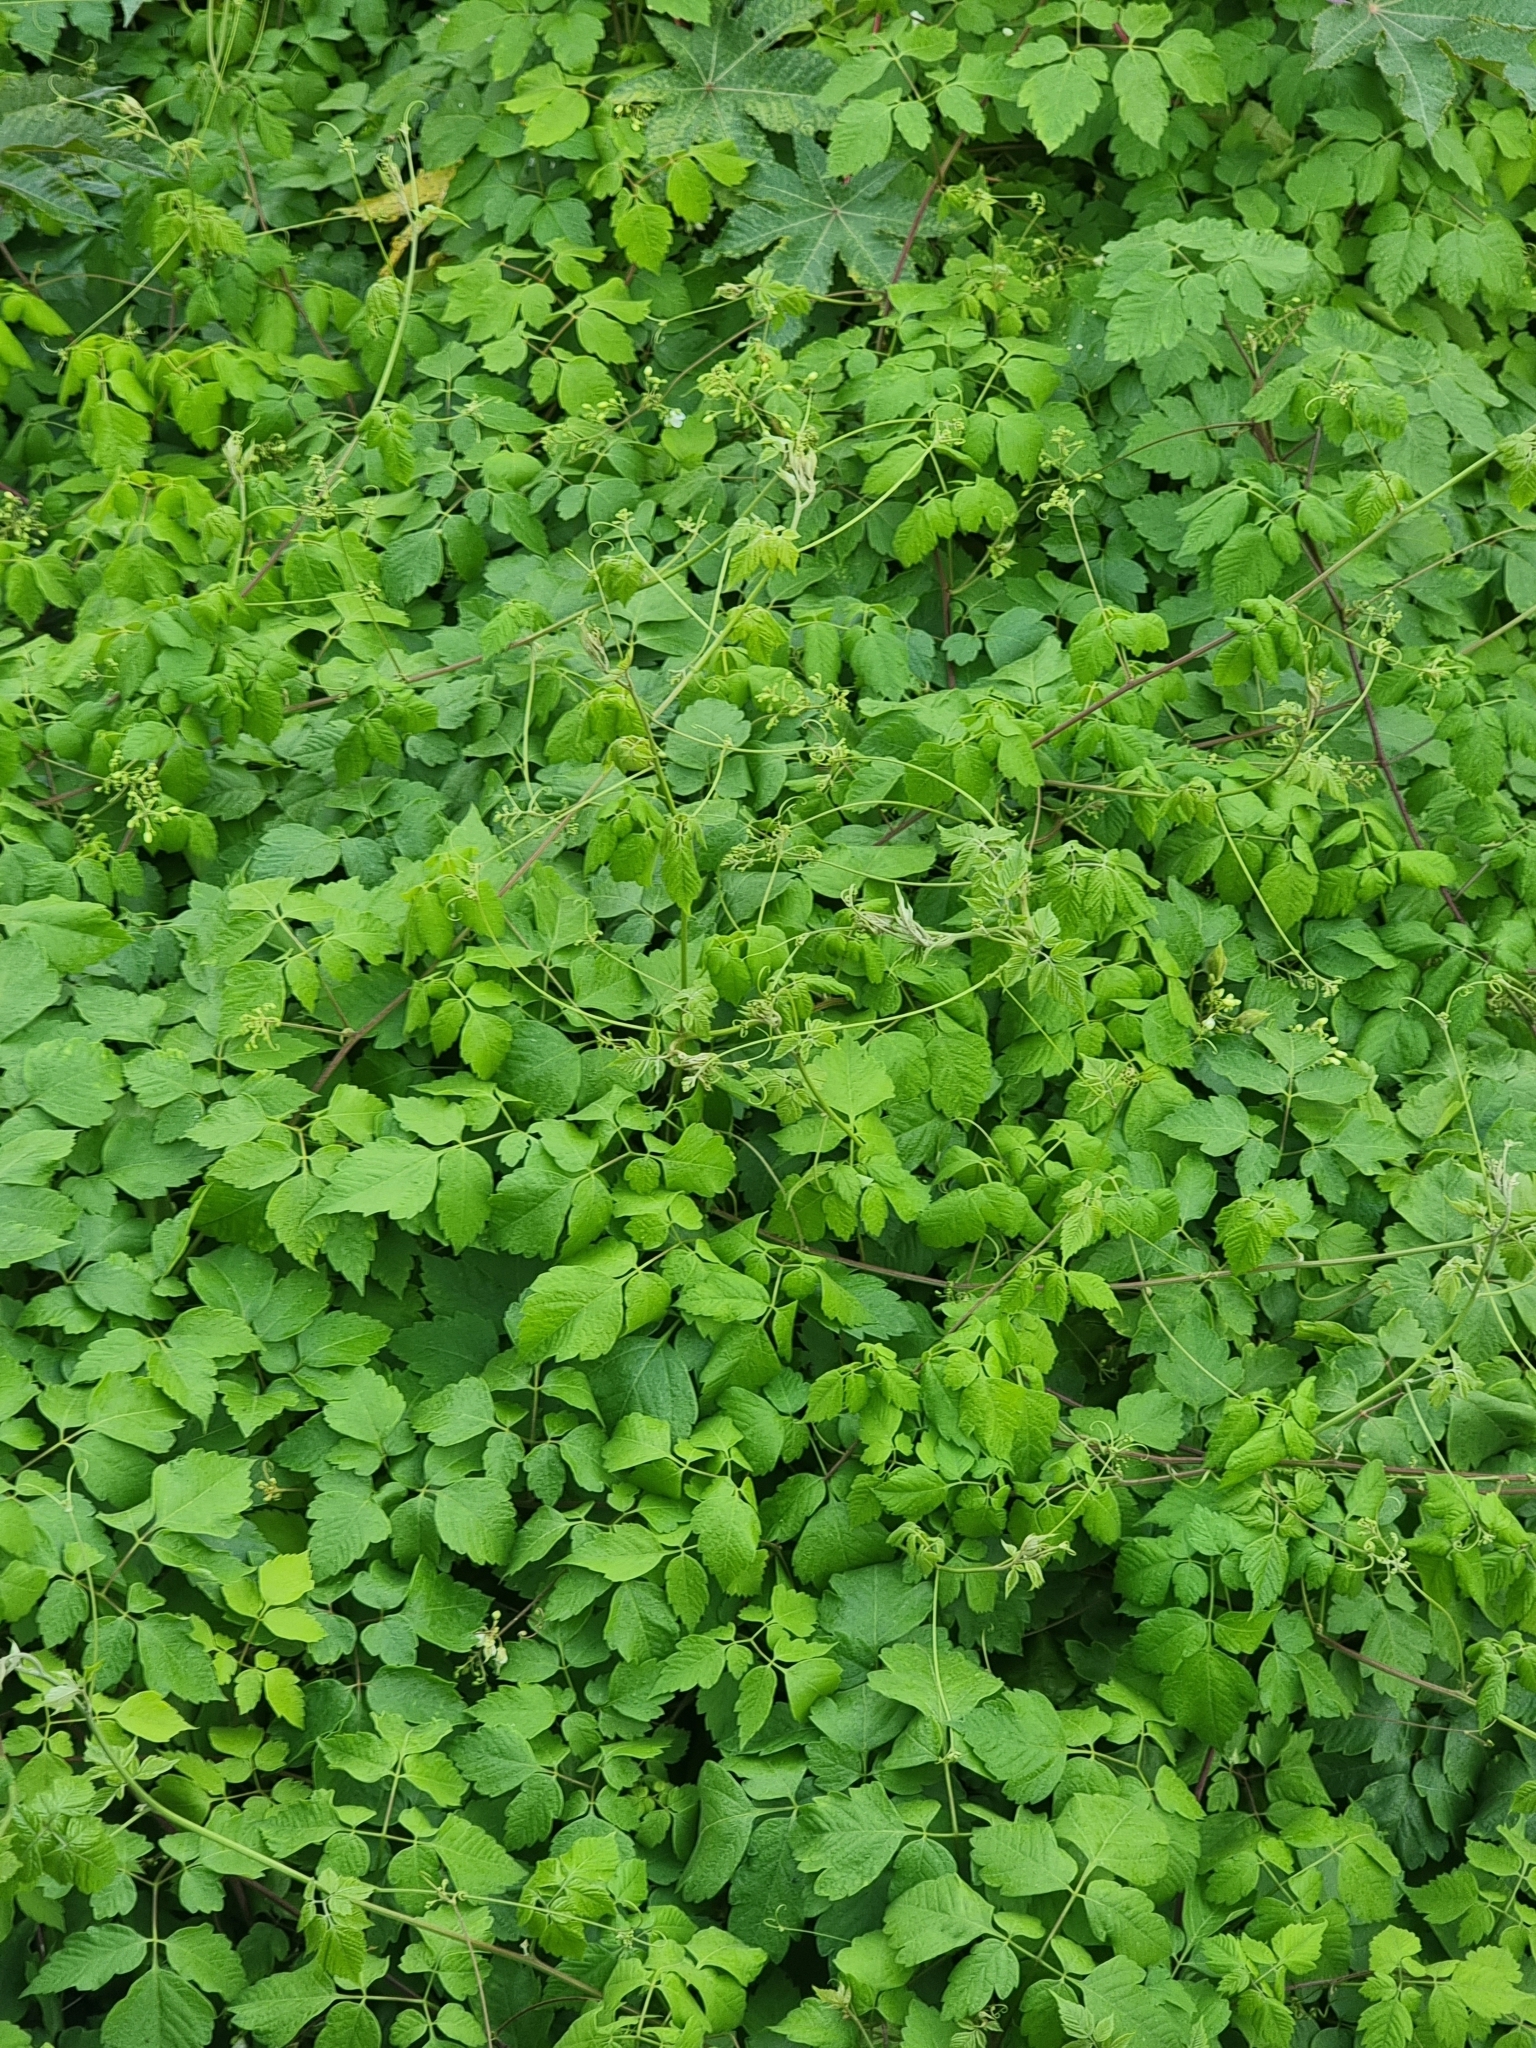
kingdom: Plantae
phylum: Tracheophyta
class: Magnoliopsida
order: Sapindales
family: Sapindaceae
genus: Cardiospermum
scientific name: Cardiospermum grandiflorum
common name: Balloon vine
